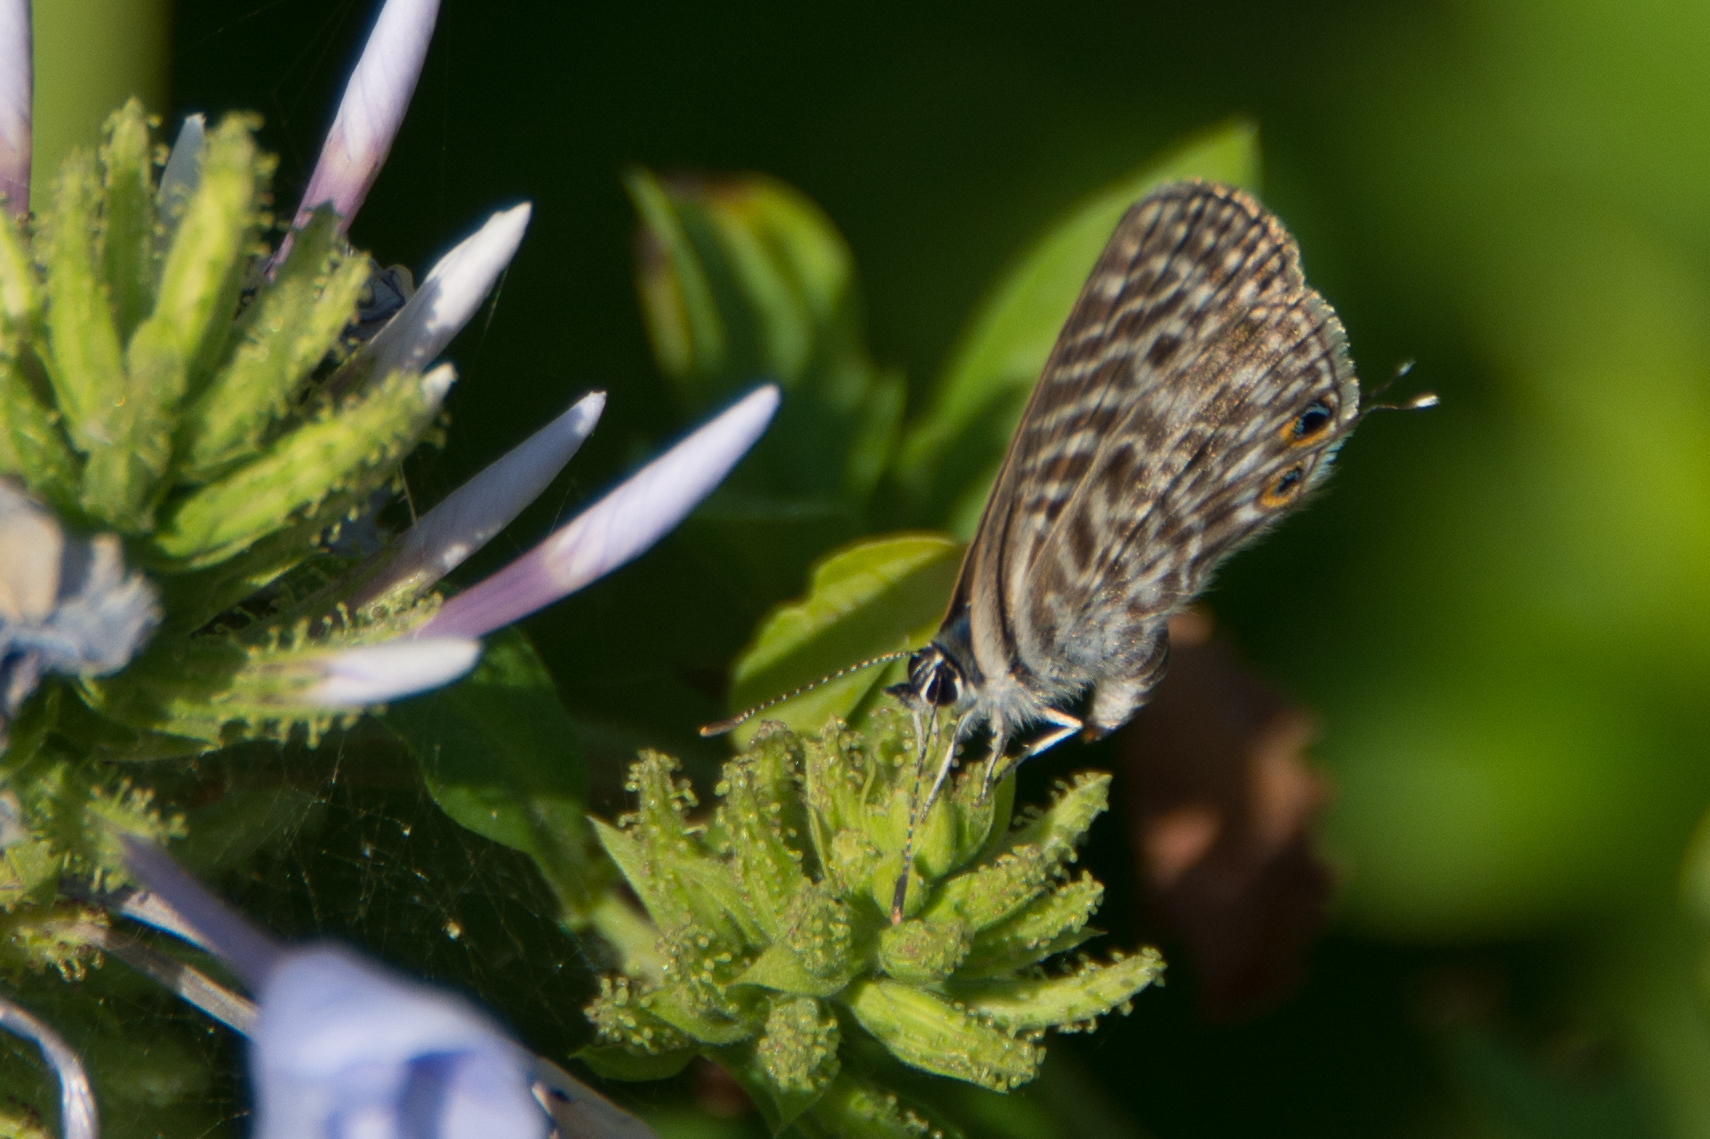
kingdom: Animalia
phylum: Arthropoda
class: Insecta
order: Lepidoptera
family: Lycaenidae
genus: Leptotes
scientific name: Leptotes pirithous
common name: Lang's short-tailed blue
